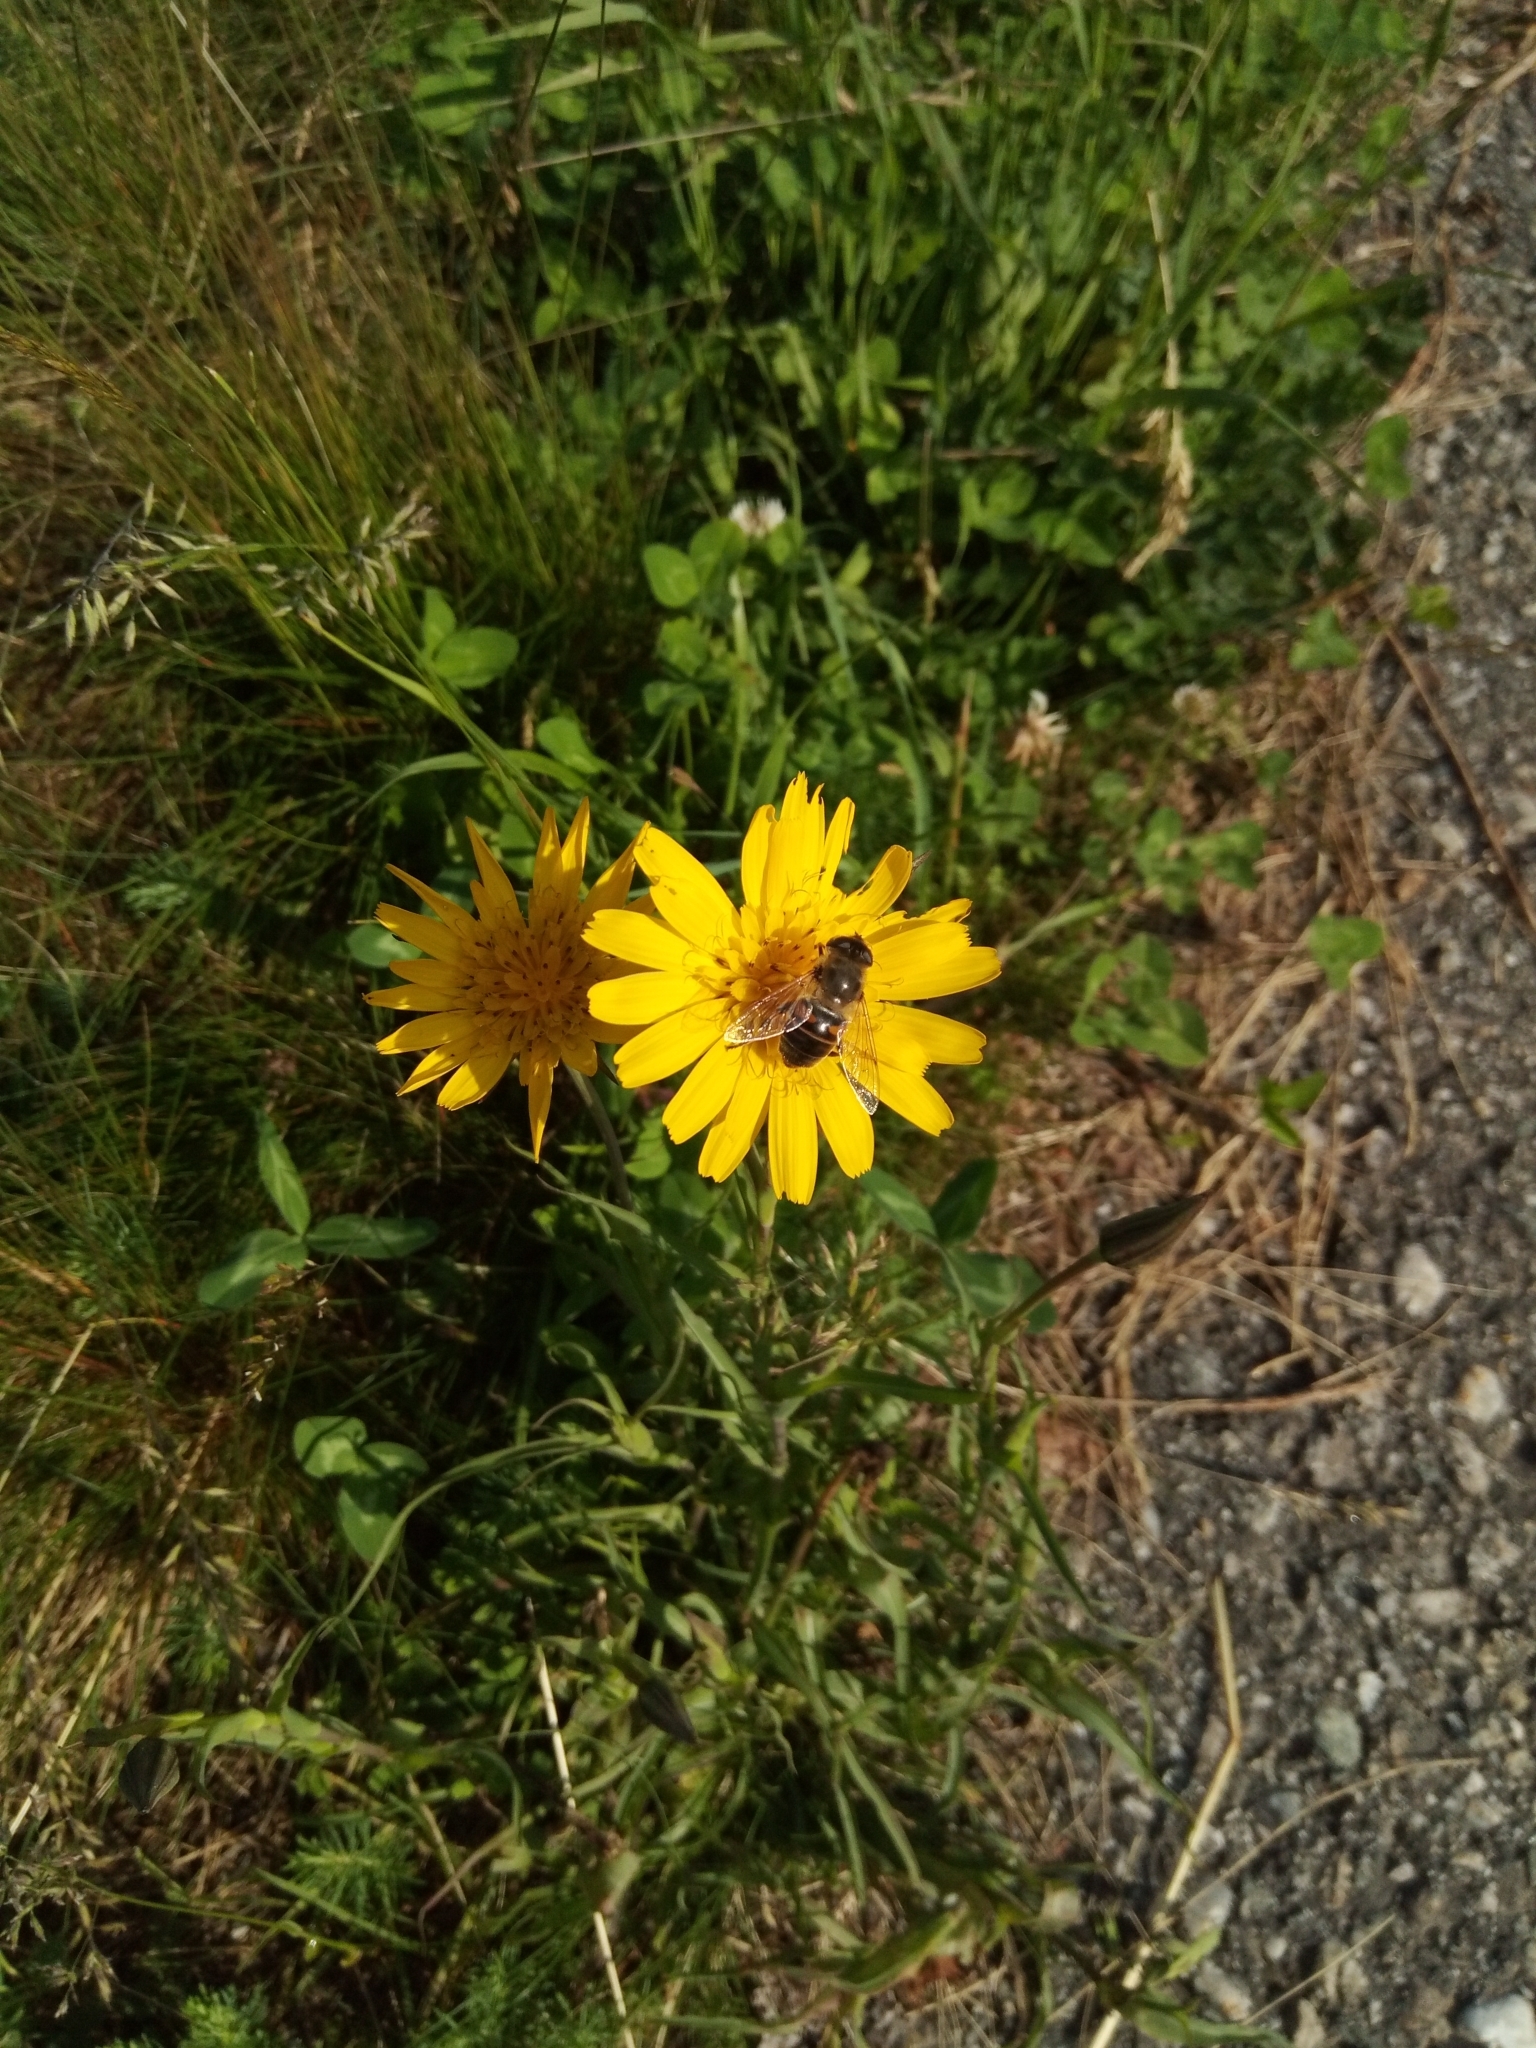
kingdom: Animalia
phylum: Arthropoda
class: Insecta
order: Diptera
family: Syrphidae
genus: Eristalis
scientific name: Eristalis tenax
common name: Drone fly
